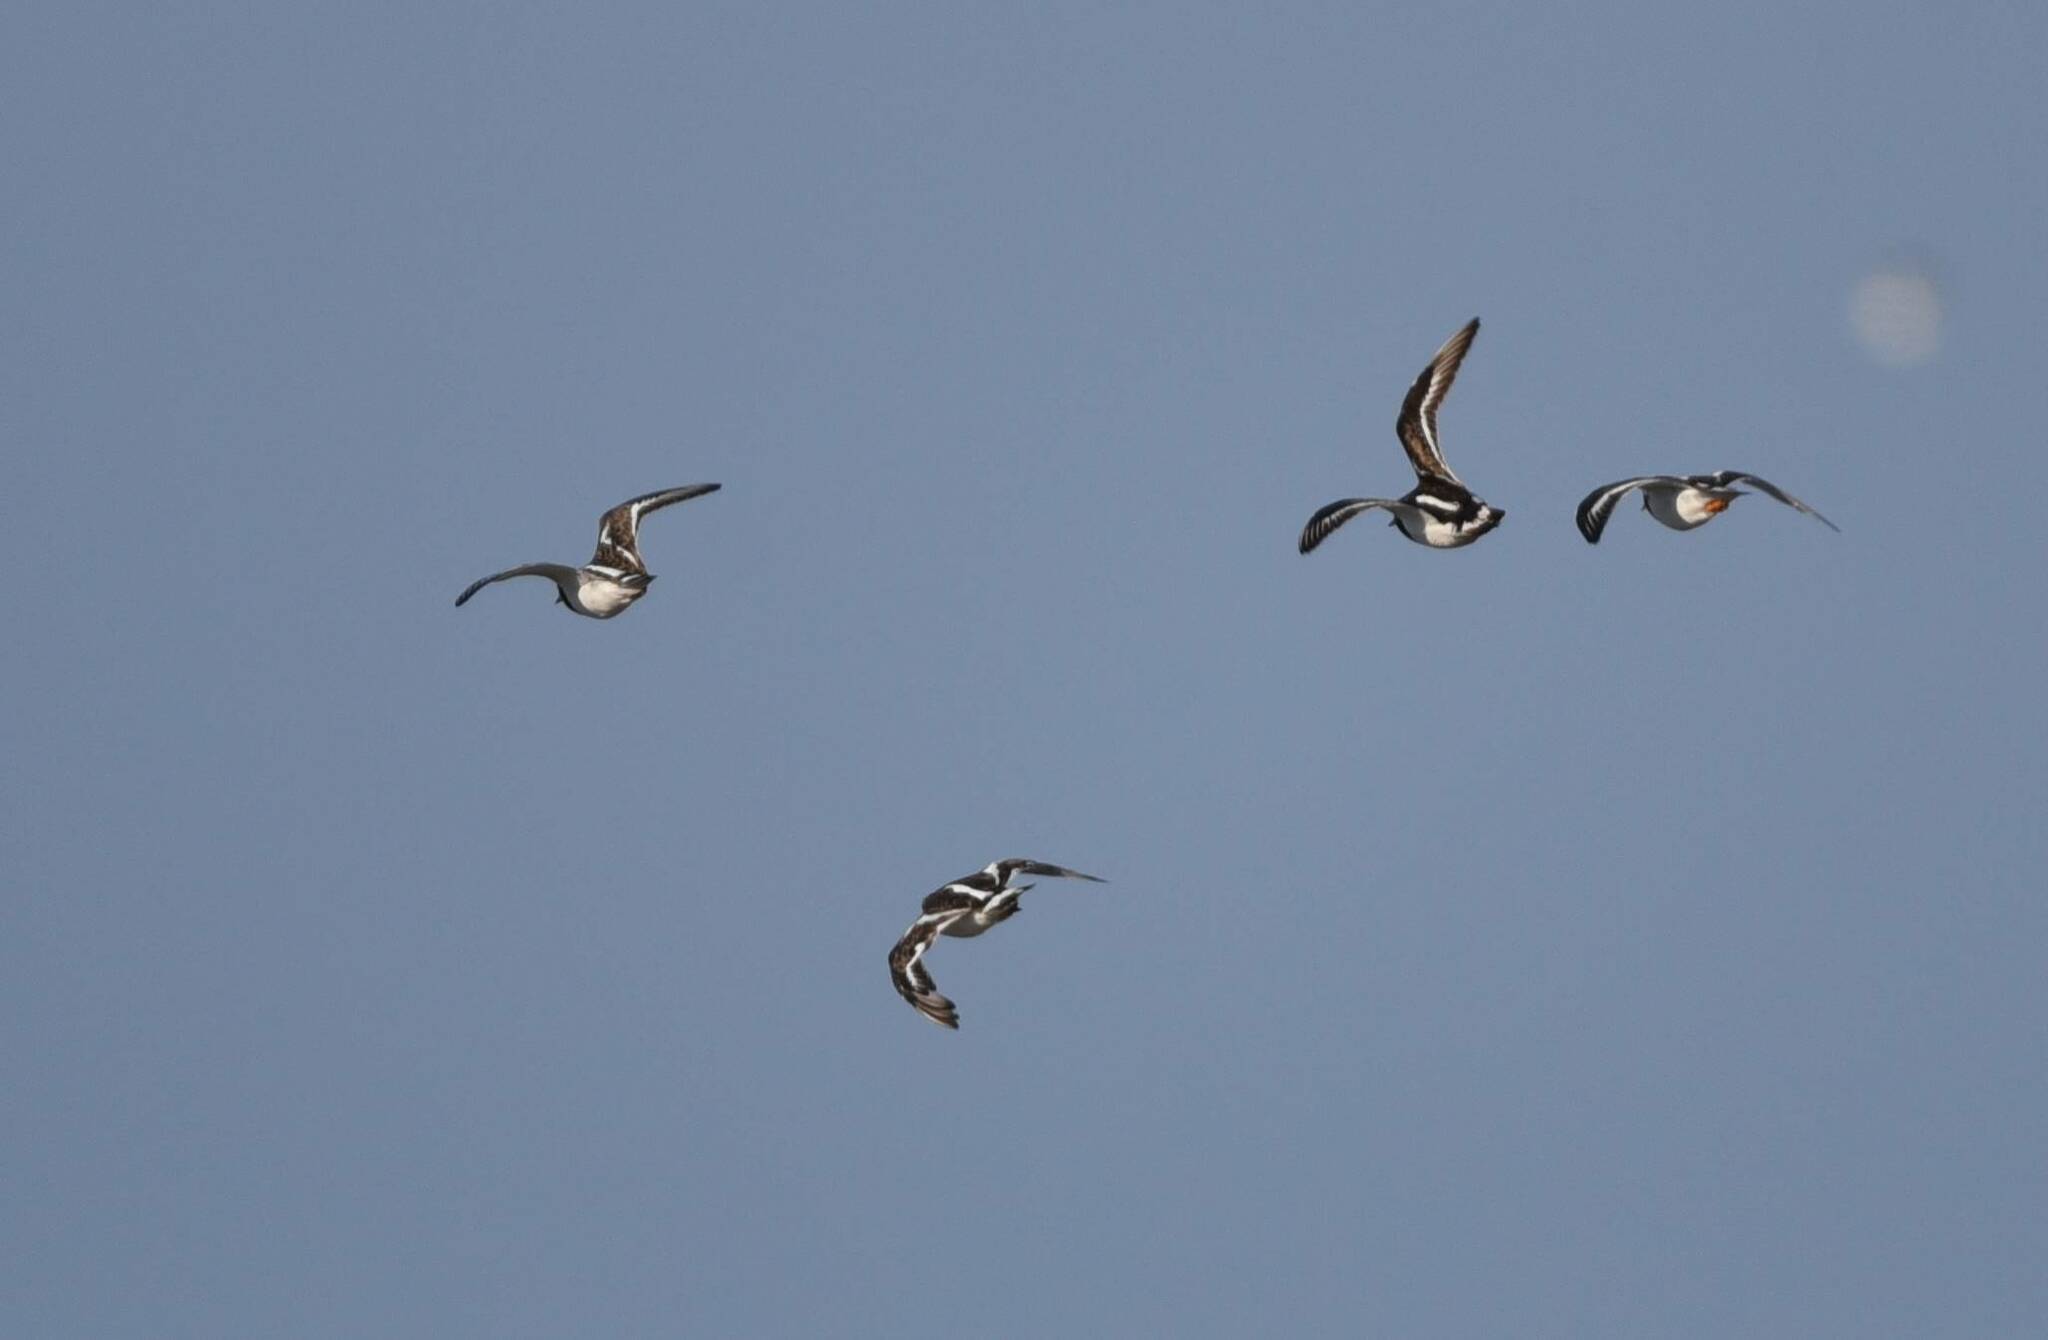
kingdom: Animalia
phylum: Chordata
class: Aves
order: Charadriiformes
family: Scolopacidae
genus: Arenaria
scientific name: Arenaria interpres
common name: Ruddy turnstone
